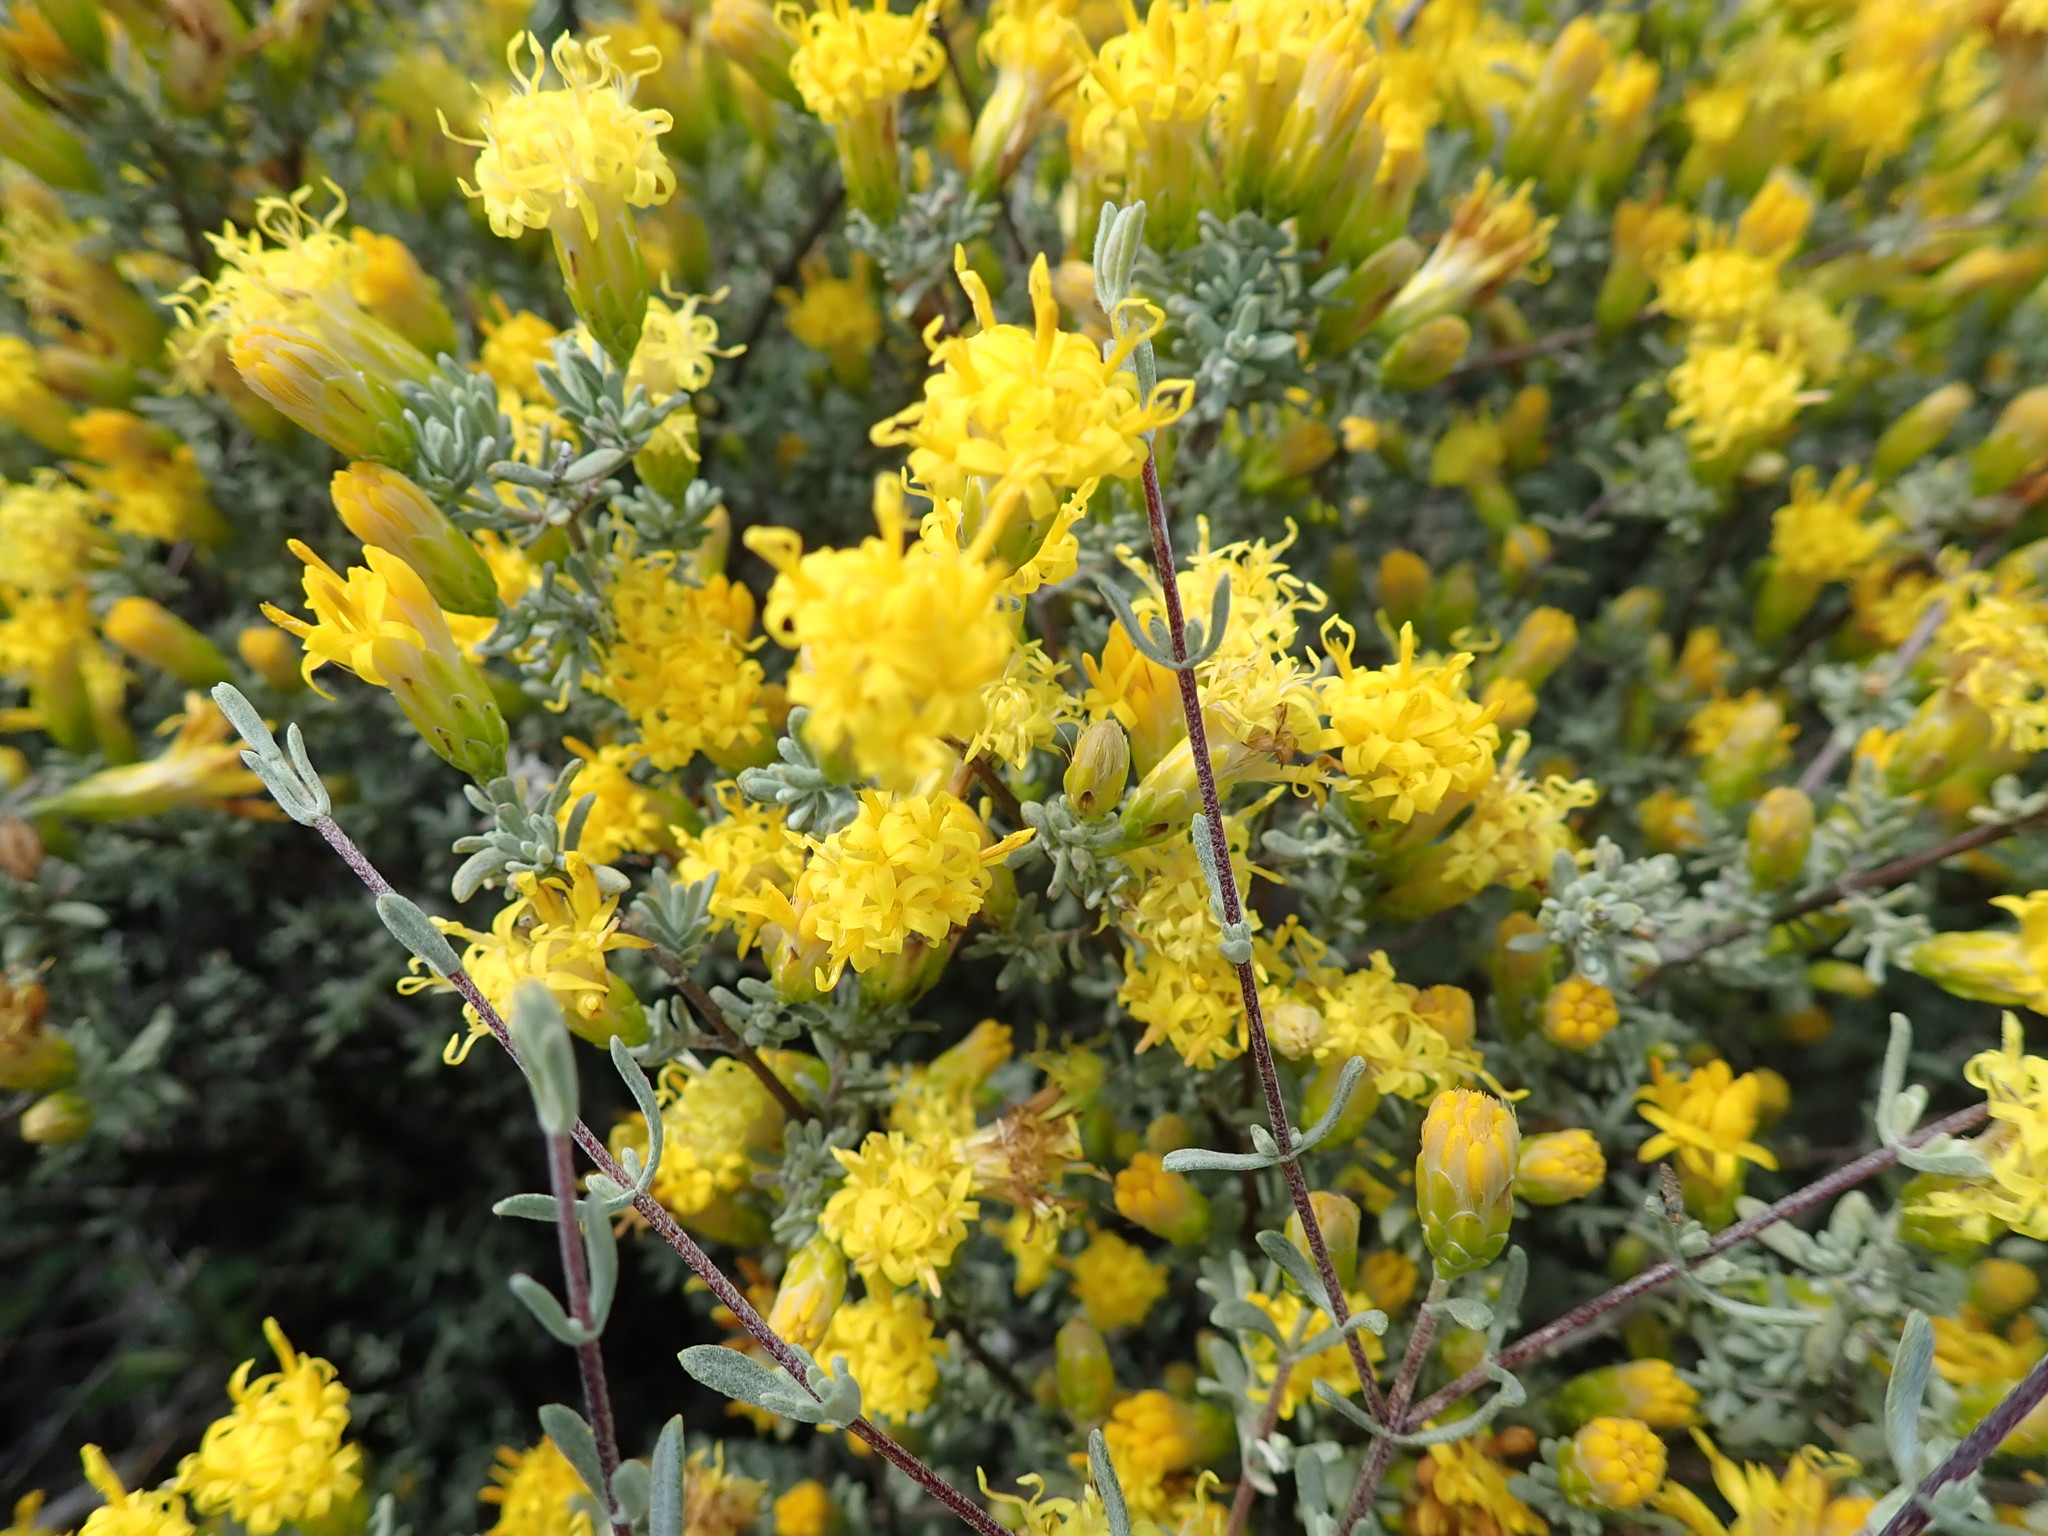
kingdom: Plantae
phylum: Tracheophyta
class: Magnoliopsida
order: Asterales
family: Asteraceae
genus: Pteronia
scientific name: Pteronia incana
